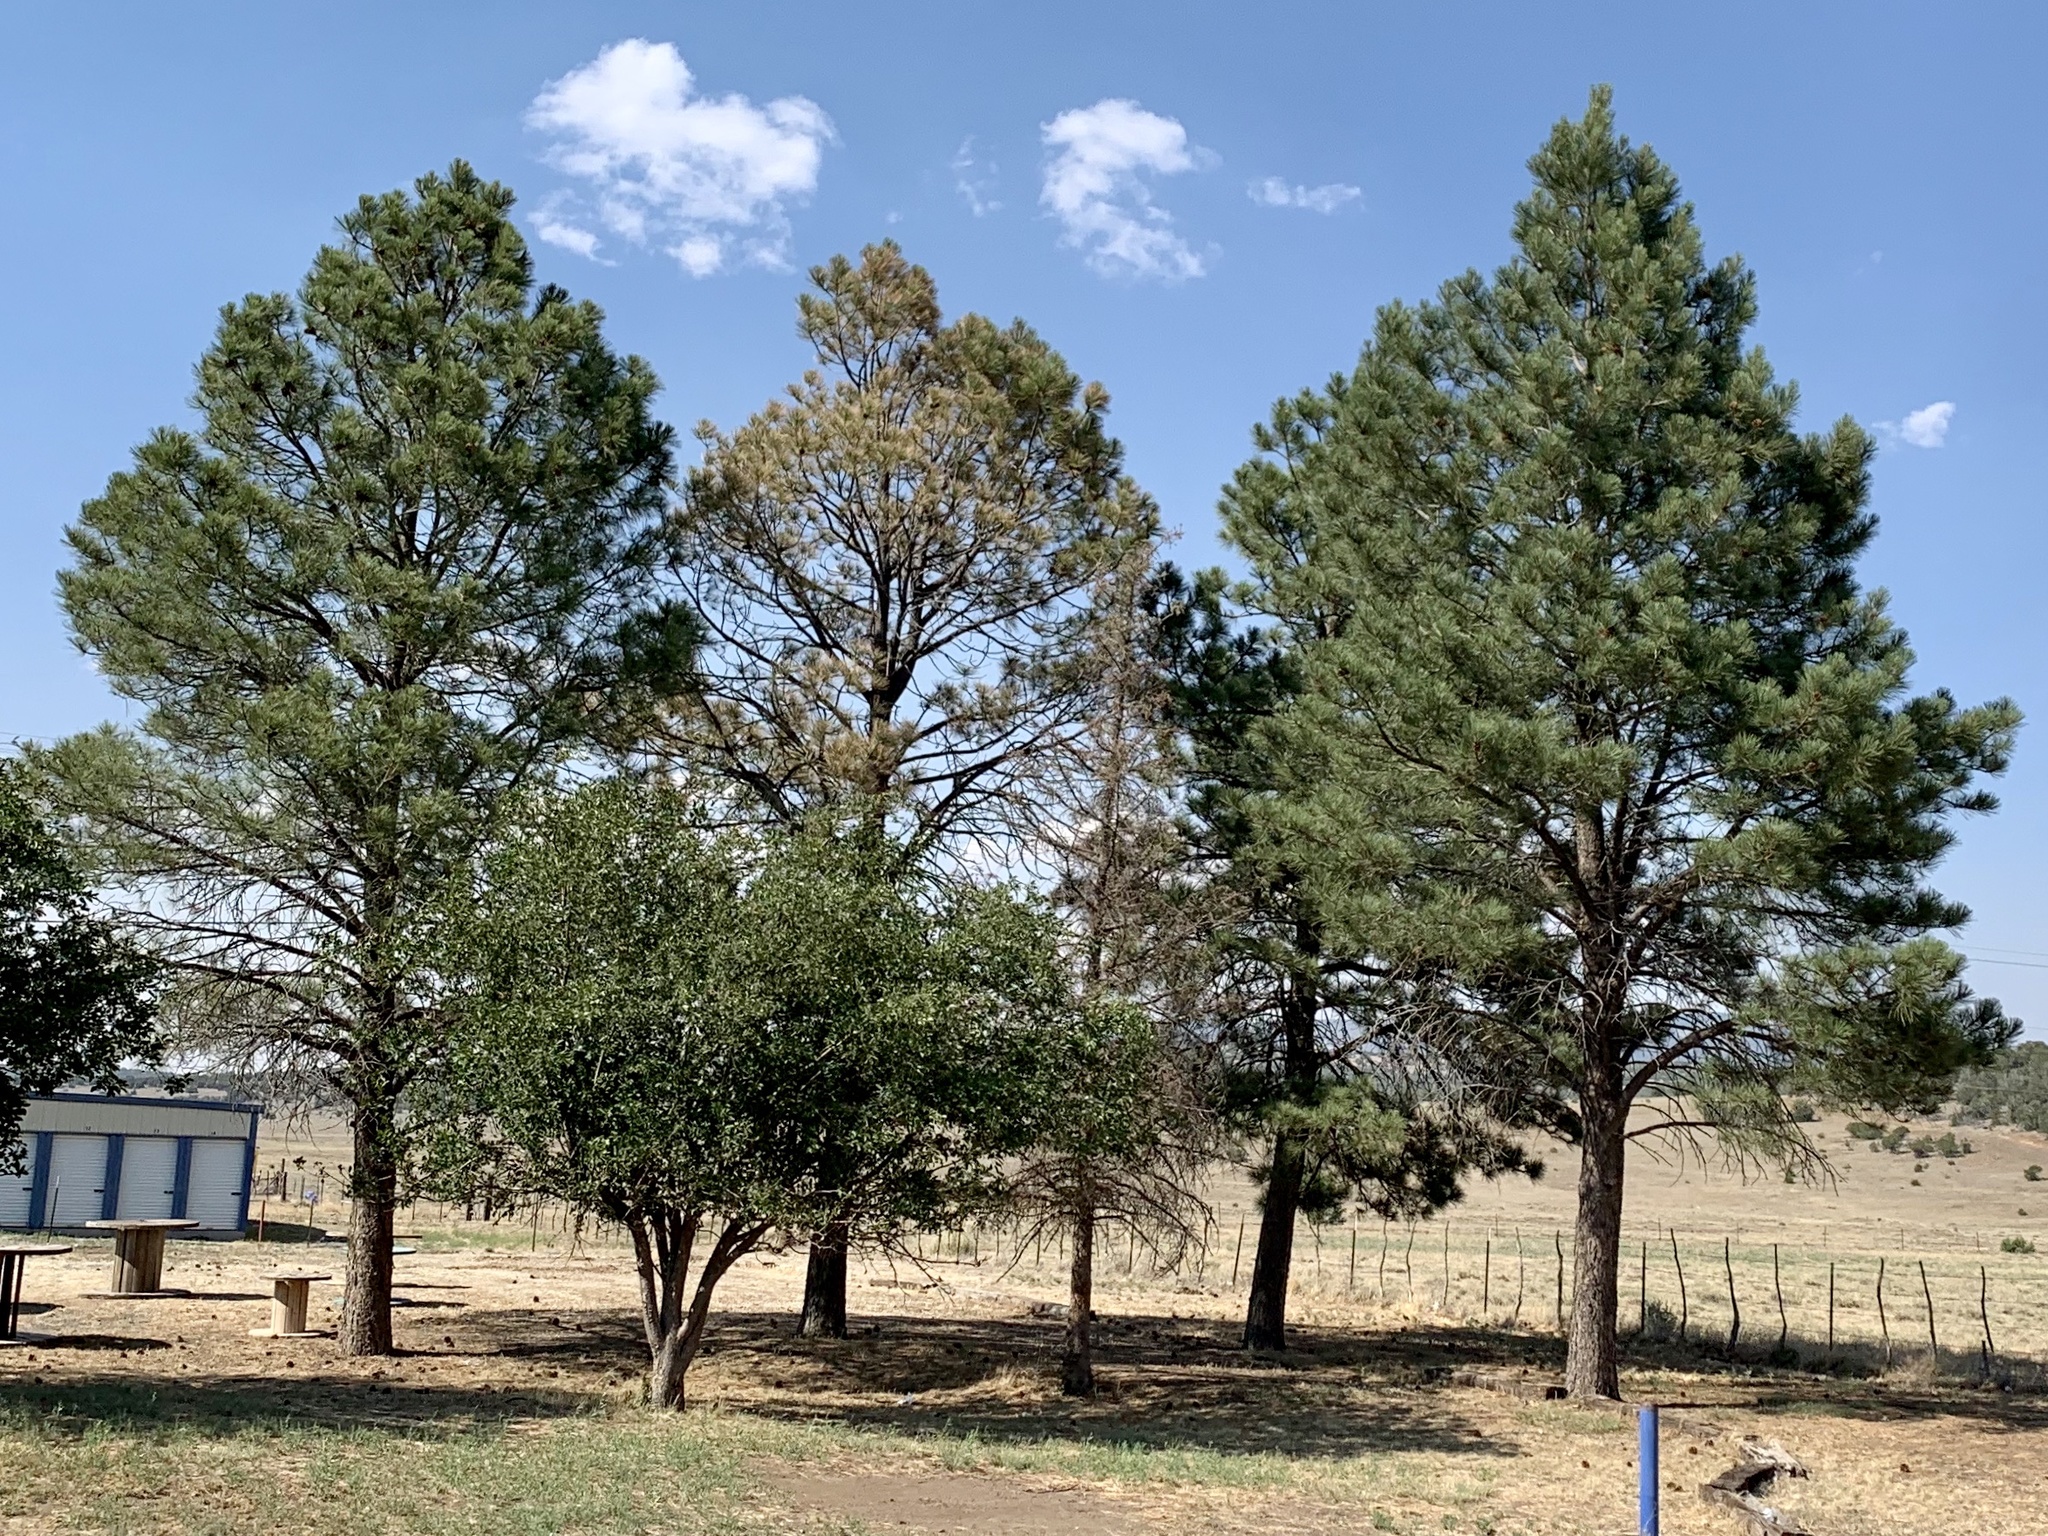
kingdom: Plantae
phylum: Tracheophyta
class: Pinopsida
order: Pinales
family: Pinaceae
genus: Pinus
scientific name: Pinus ponderosa
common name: Western yellow-pine
